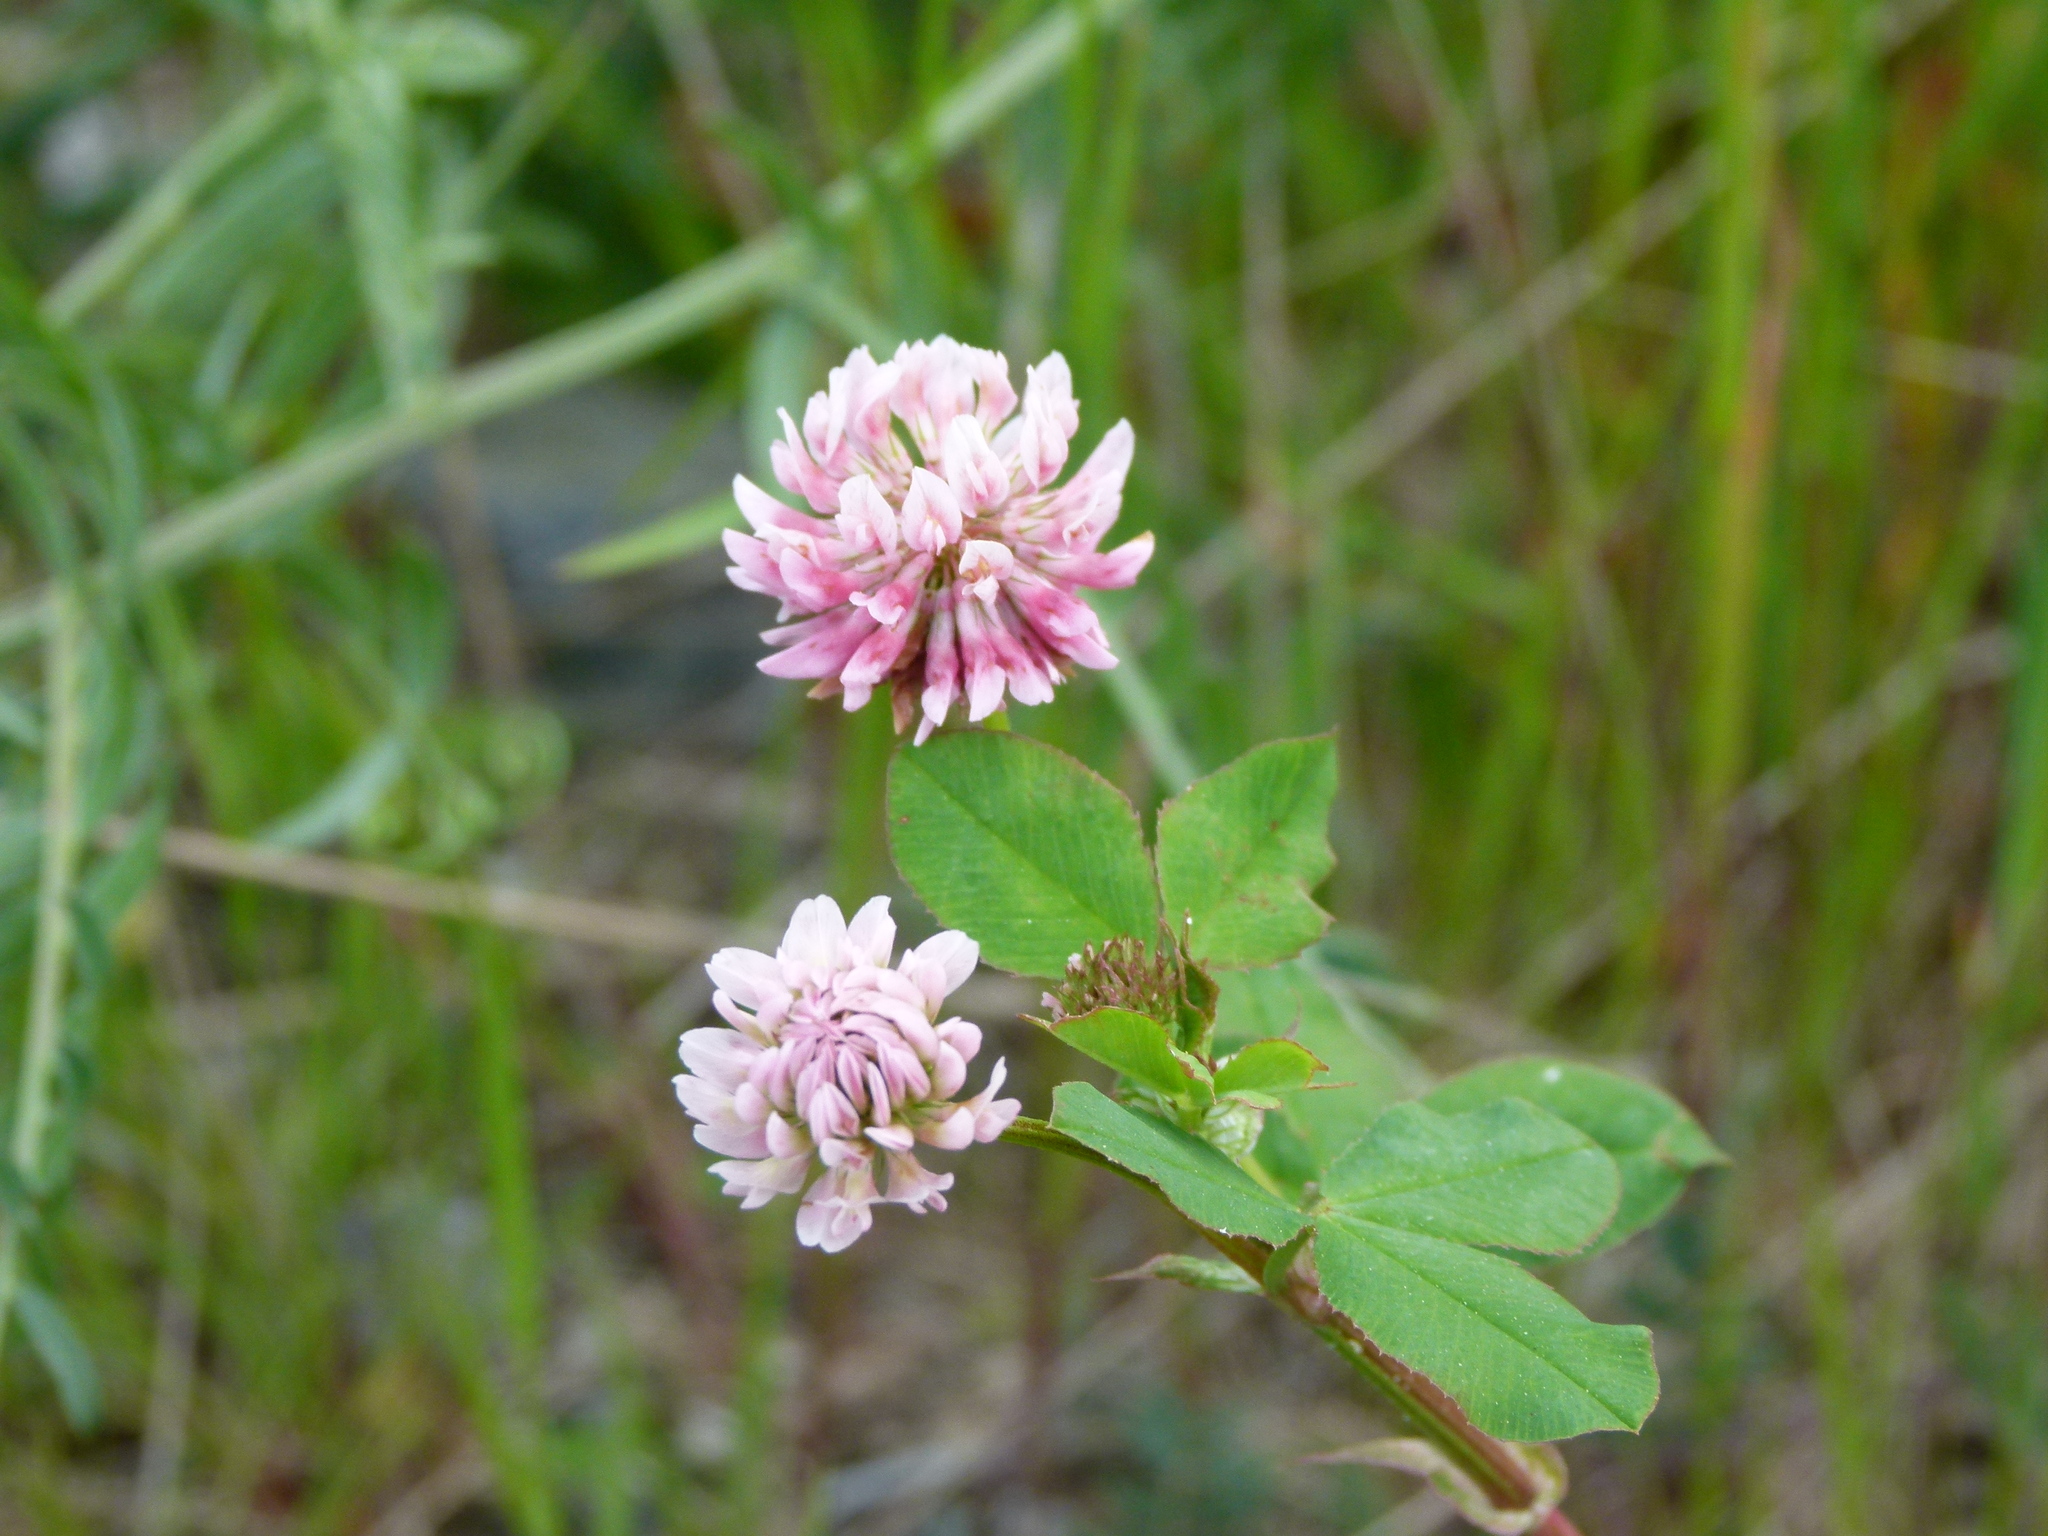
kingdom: Plantae
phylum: Tracheophyta
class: Magnoliopsida
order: Fabales
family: Fabaceae
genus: Trifolium
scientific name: Trifolium hybridum
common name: Alsike clover
